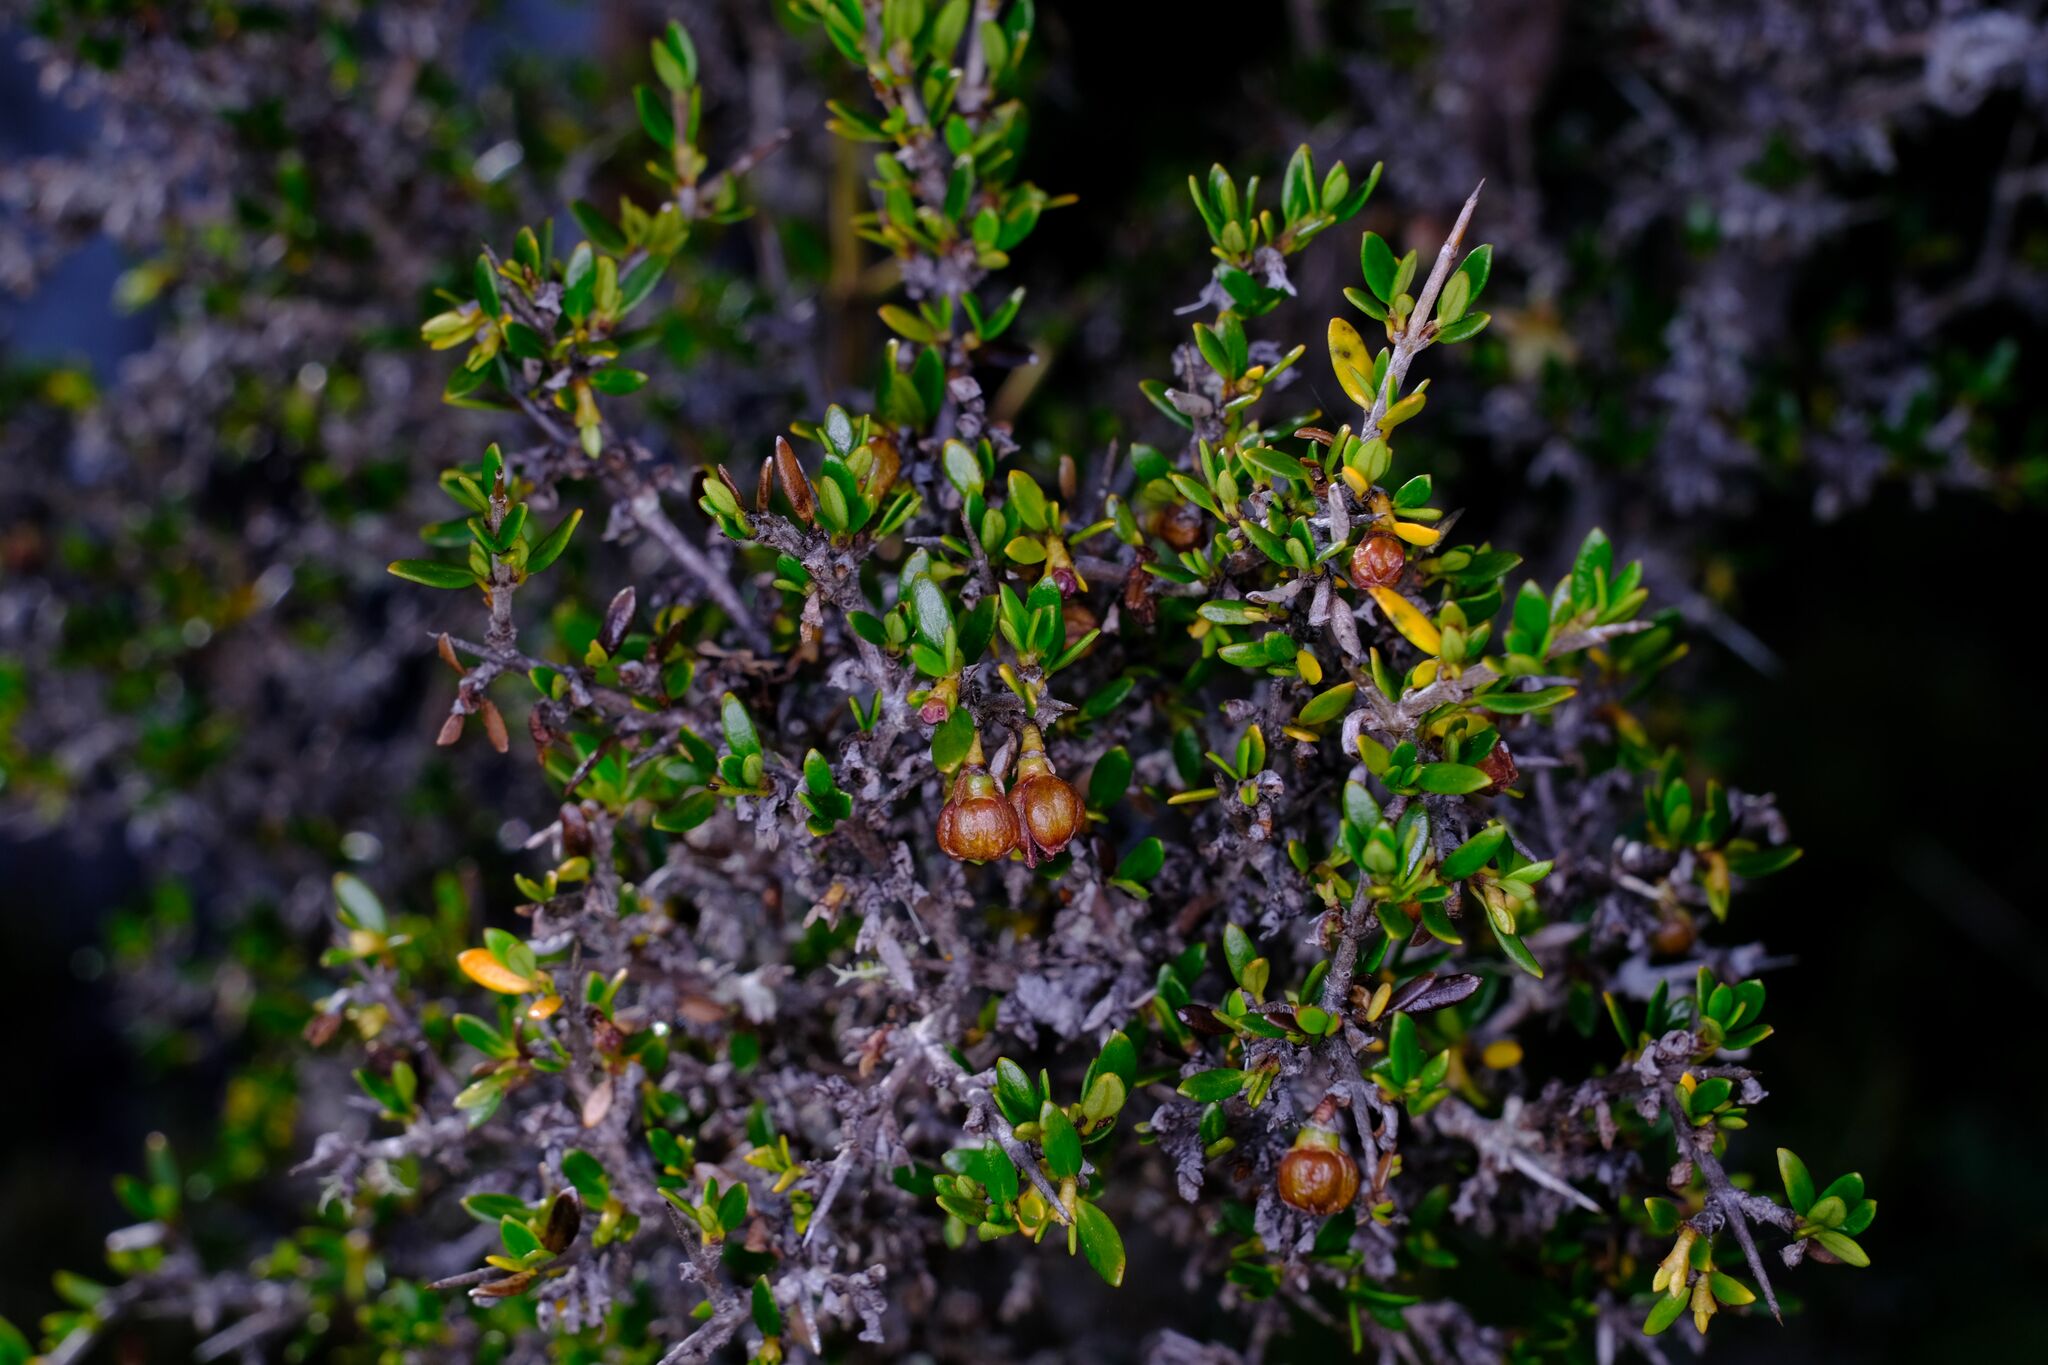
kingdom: Plantae
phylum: Tracheophyta
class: Magnoliopsida
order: Gentianales
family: Rubiaceae
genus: Coprosma
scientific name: Coprosma nitida
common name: Shining coprosma
